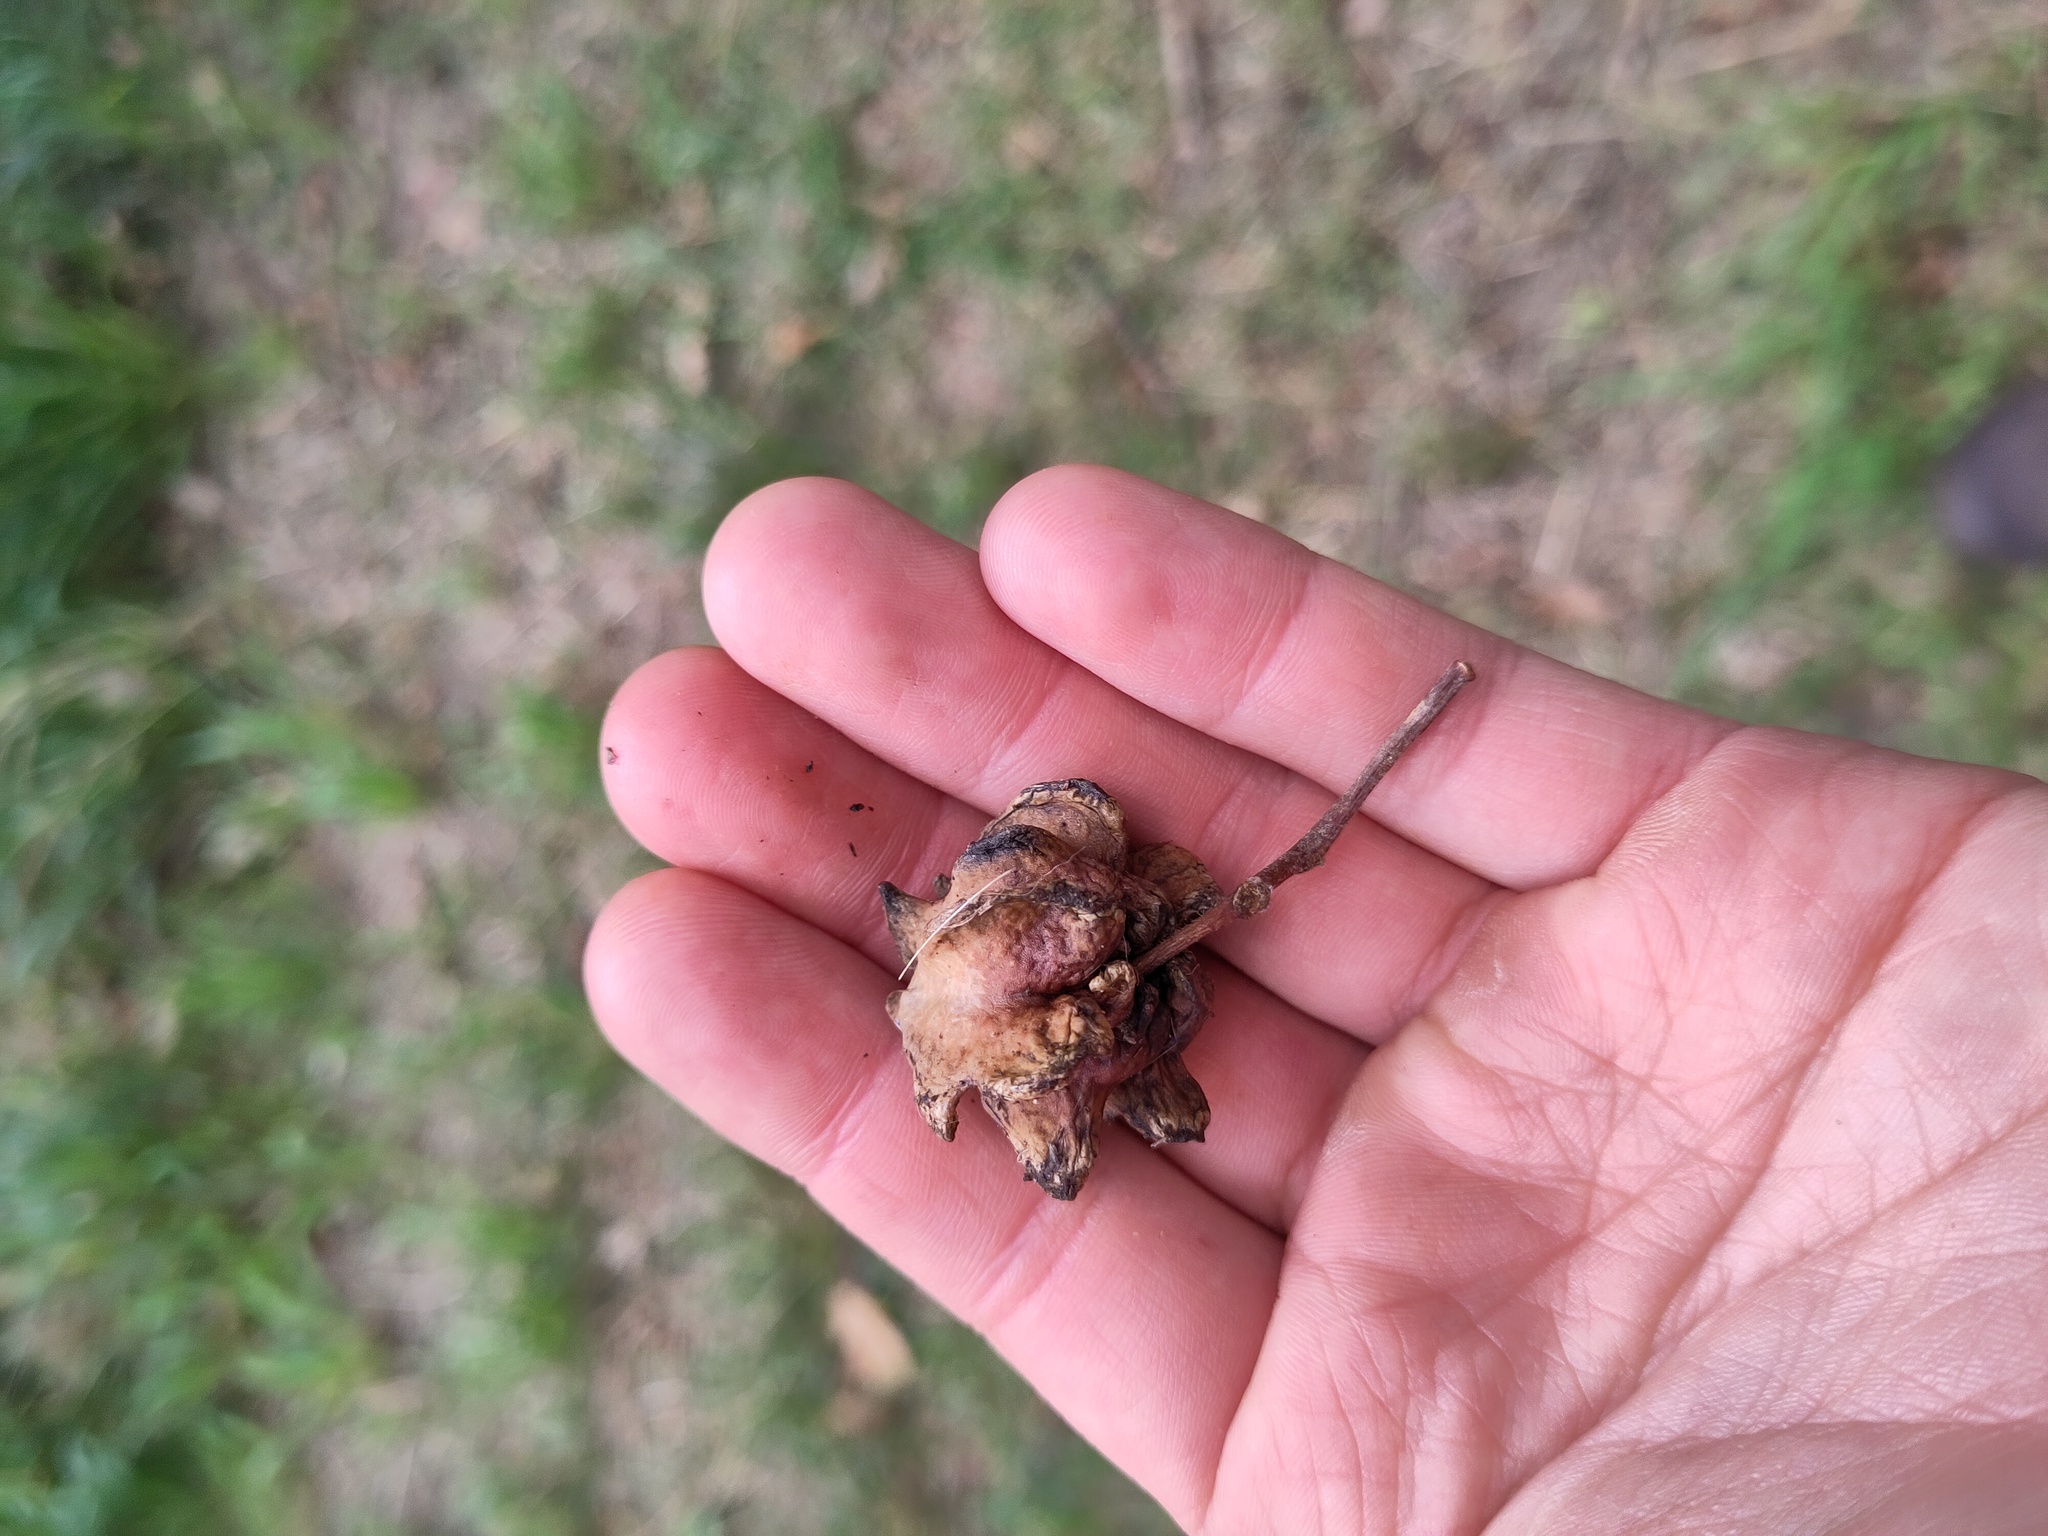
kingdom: Animalia
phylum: Arthropoda
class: Insecta
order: Hymenoptera
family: Cynipidae
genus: Andricus
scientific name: Andricus quercuscalicis
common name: Knopper gall
